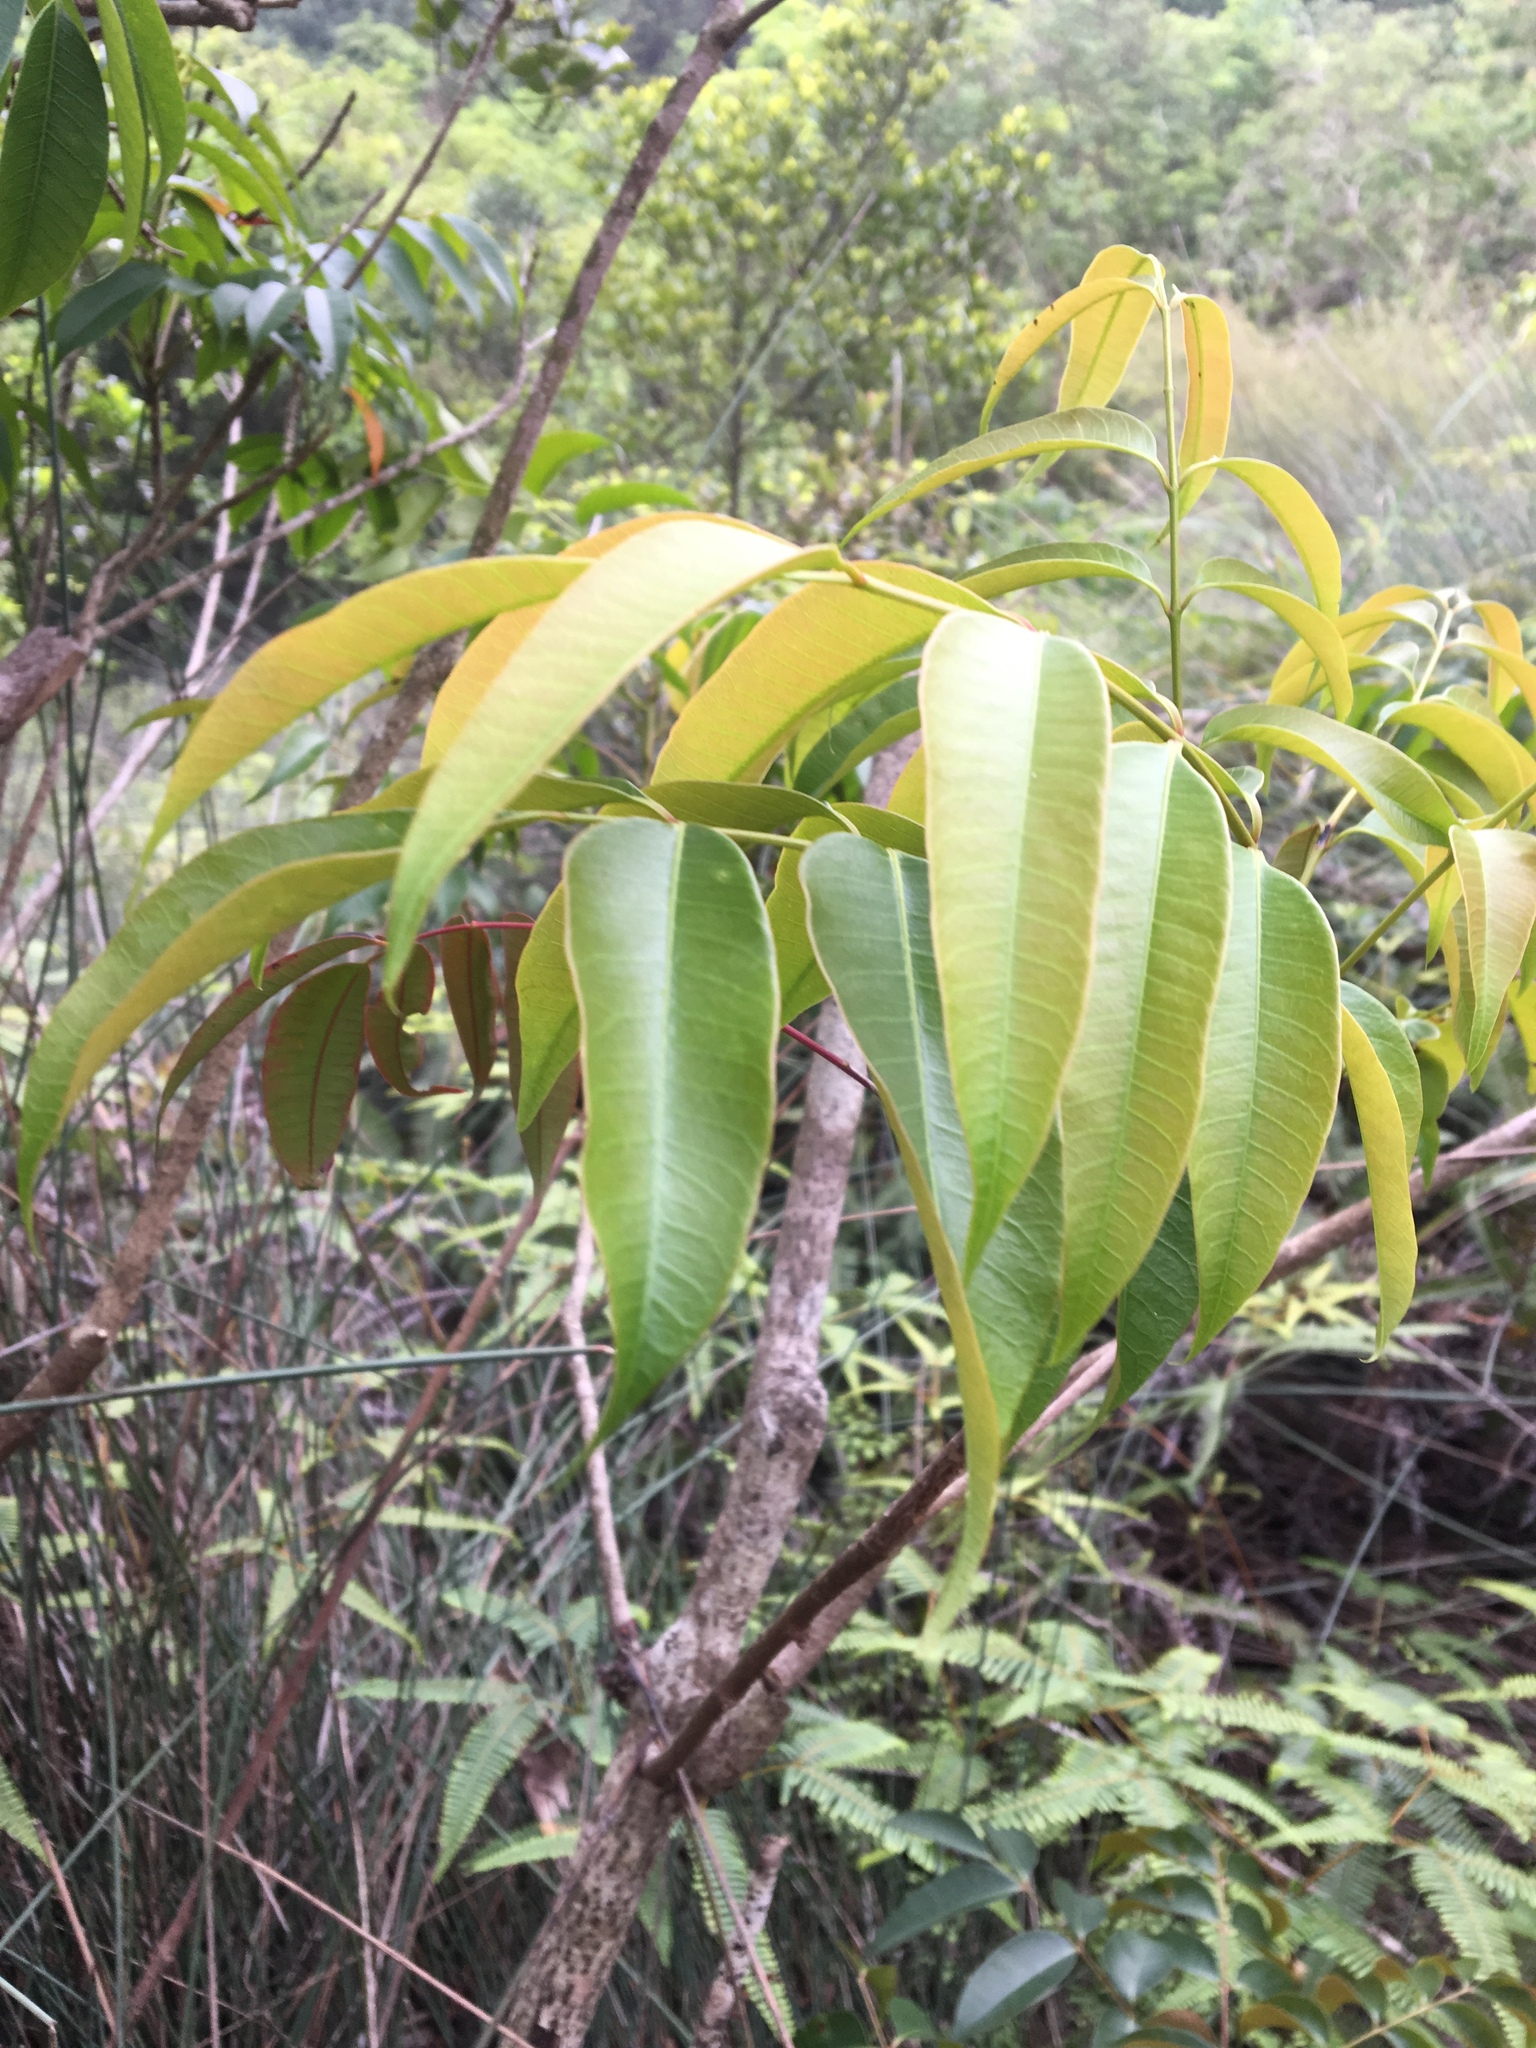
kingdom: Plantae
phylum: Tracheophyta
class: Magnoliopsida
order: Sapindales
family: Anacardiaceae
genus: Toxicodendron
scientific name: Toxicodendron succedaneum
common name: Wax tree
